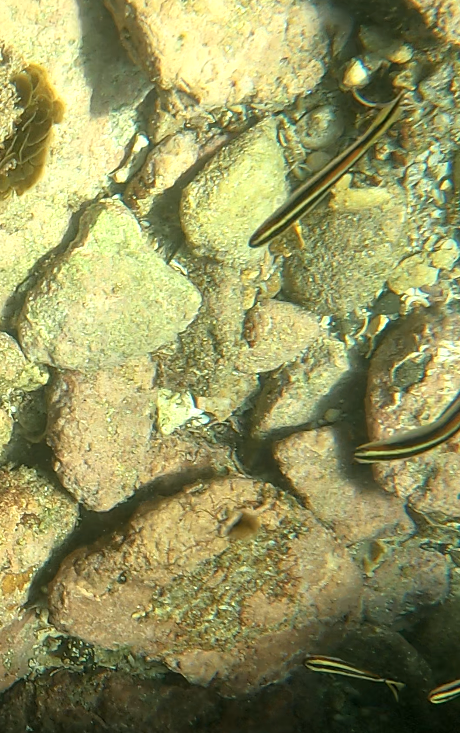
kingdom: Animalia
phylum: Chordata
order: Perciformes
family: Plesiopidae
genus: Trachinops
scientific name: Trachinops taeniatus
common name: Eastern hulafish
